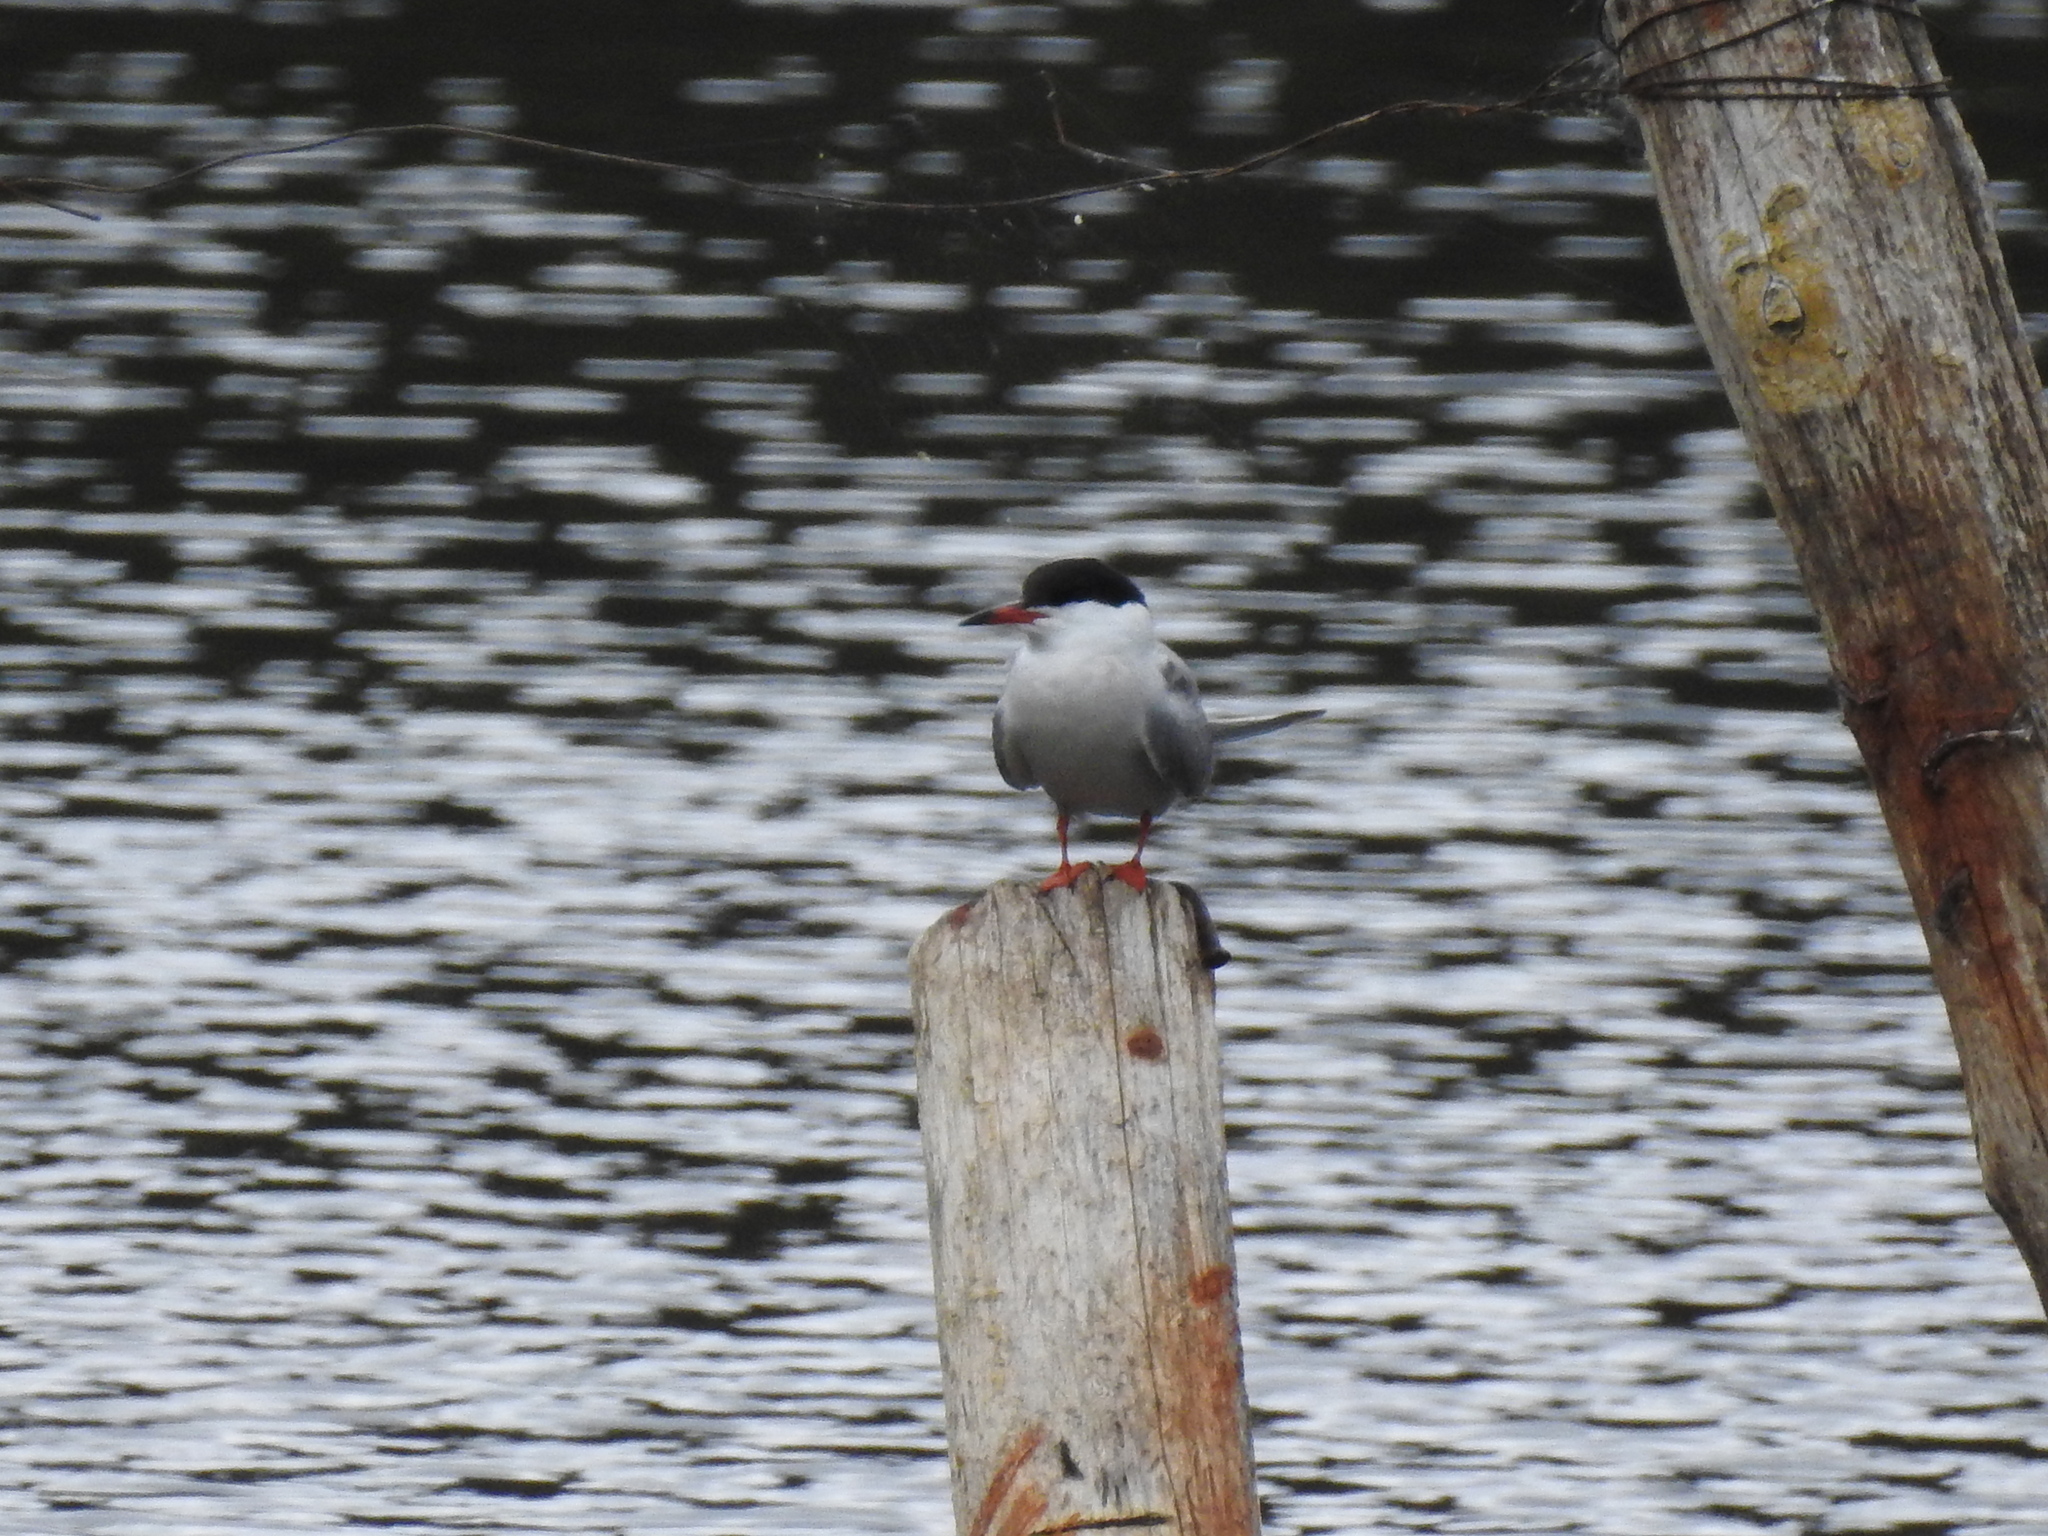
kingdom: Animalia
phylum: Chordata
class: Aves
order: Charadriiformes
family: Laridae
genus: Sterna
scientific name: Sterna hirundo
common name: Common tern
